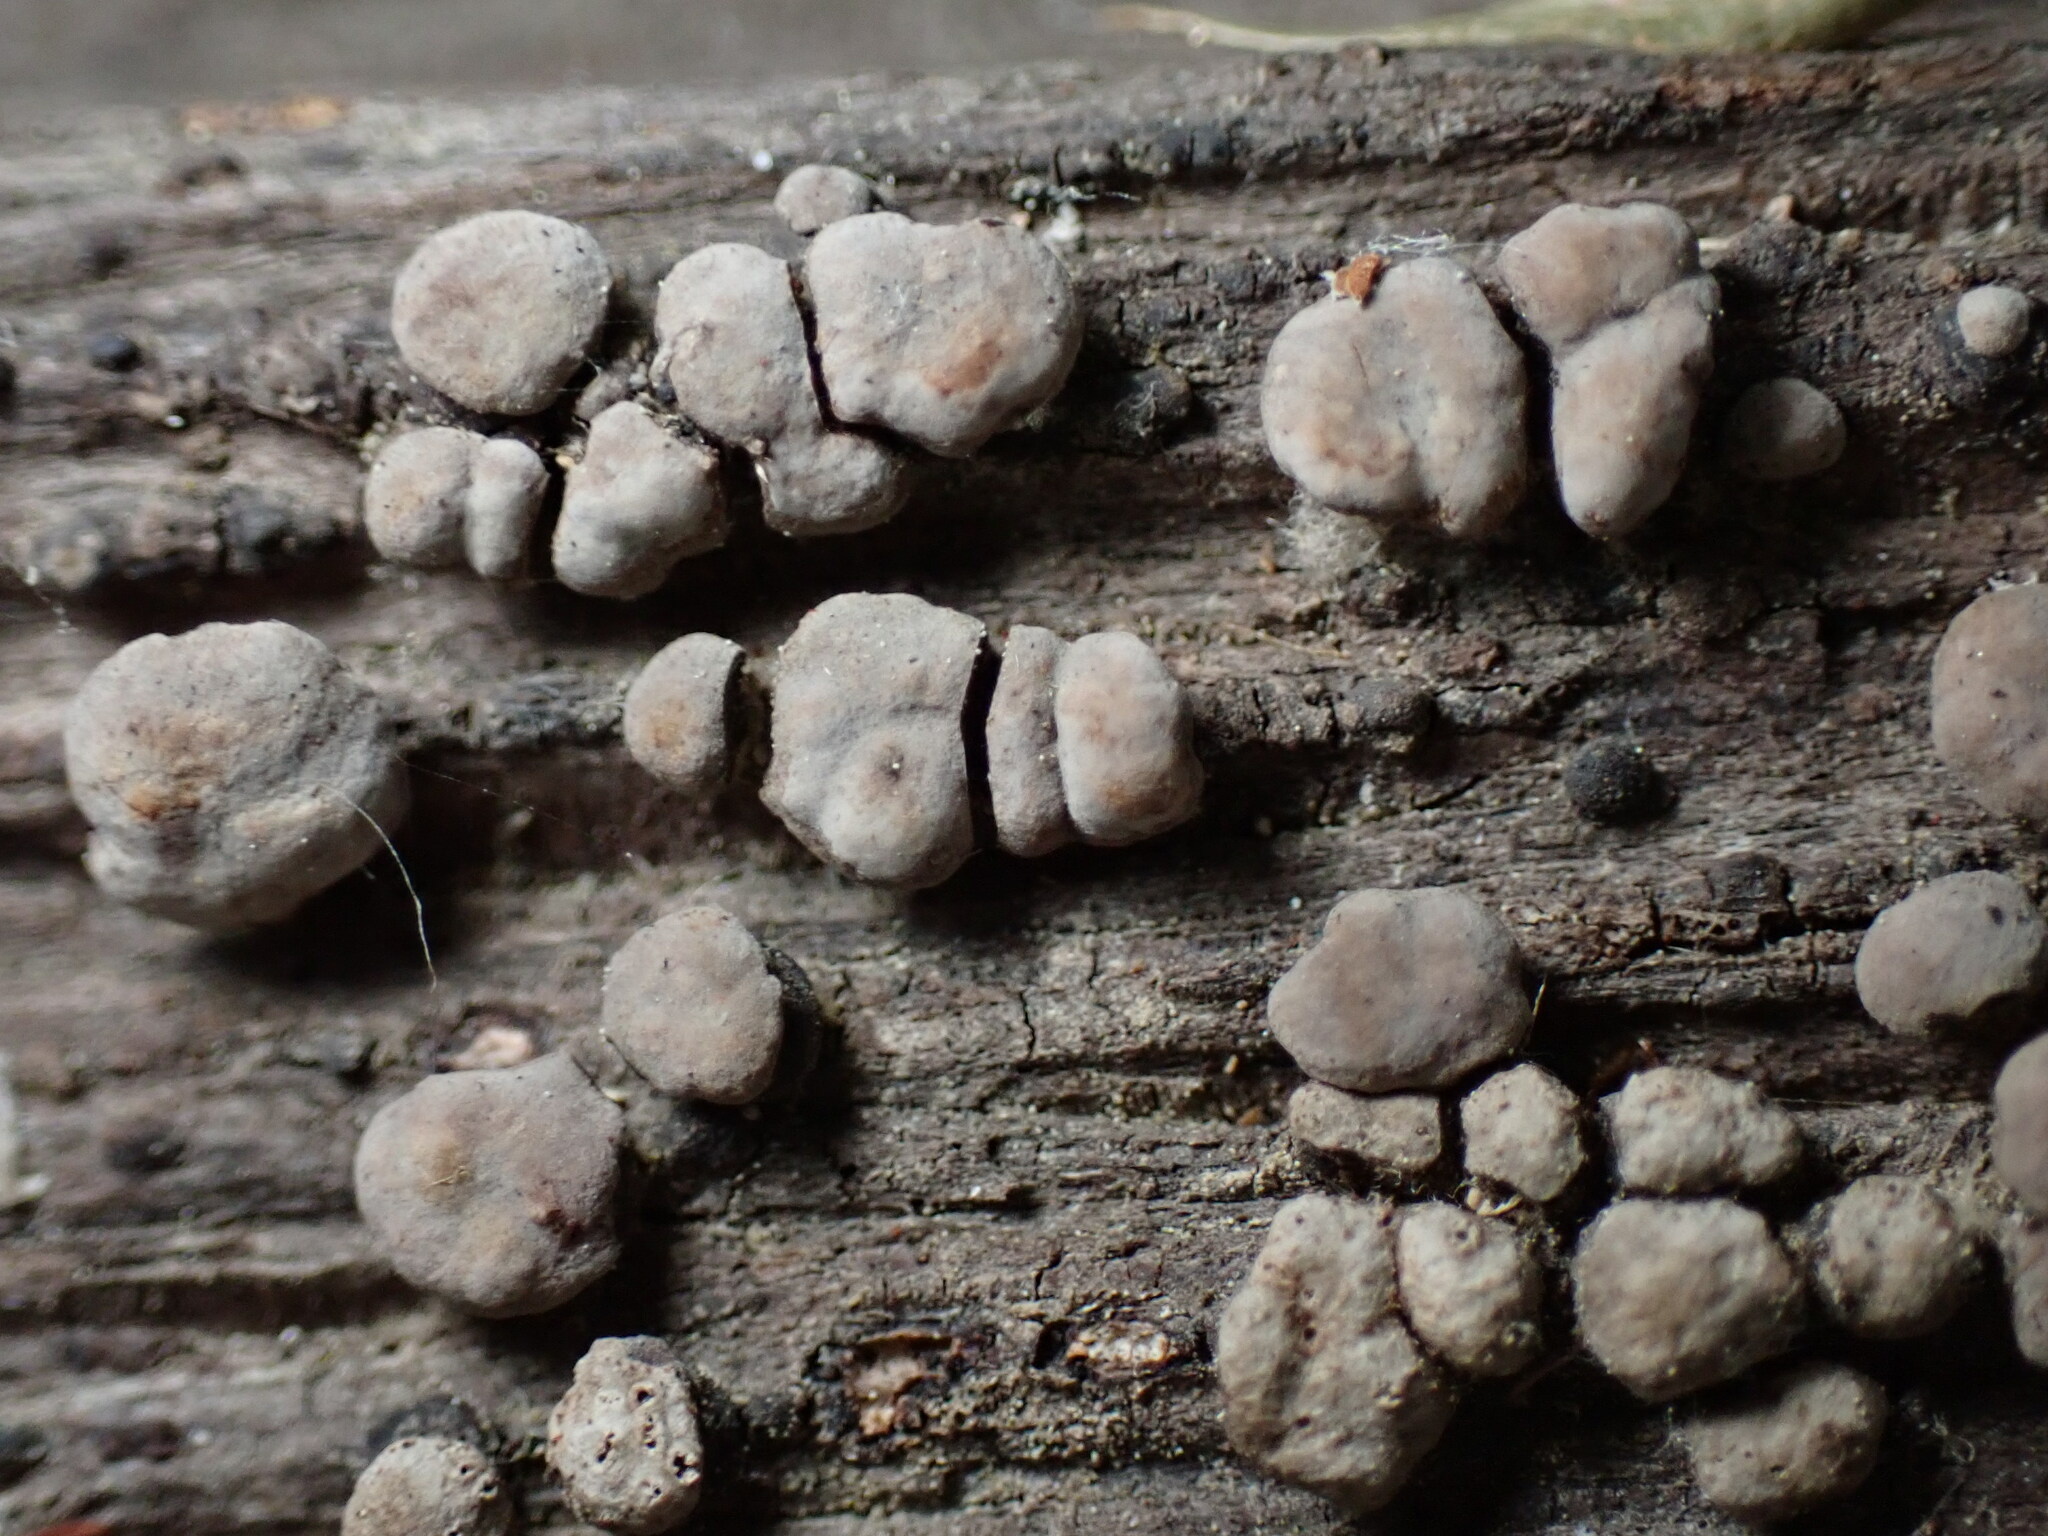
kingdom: Fungi
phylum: Basidiomycota
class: Agaricomycetes
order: Russulales
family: Stereaceae
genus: Xylobolus
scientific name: Xylobolus frustulatus
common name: Ceramic parchment
